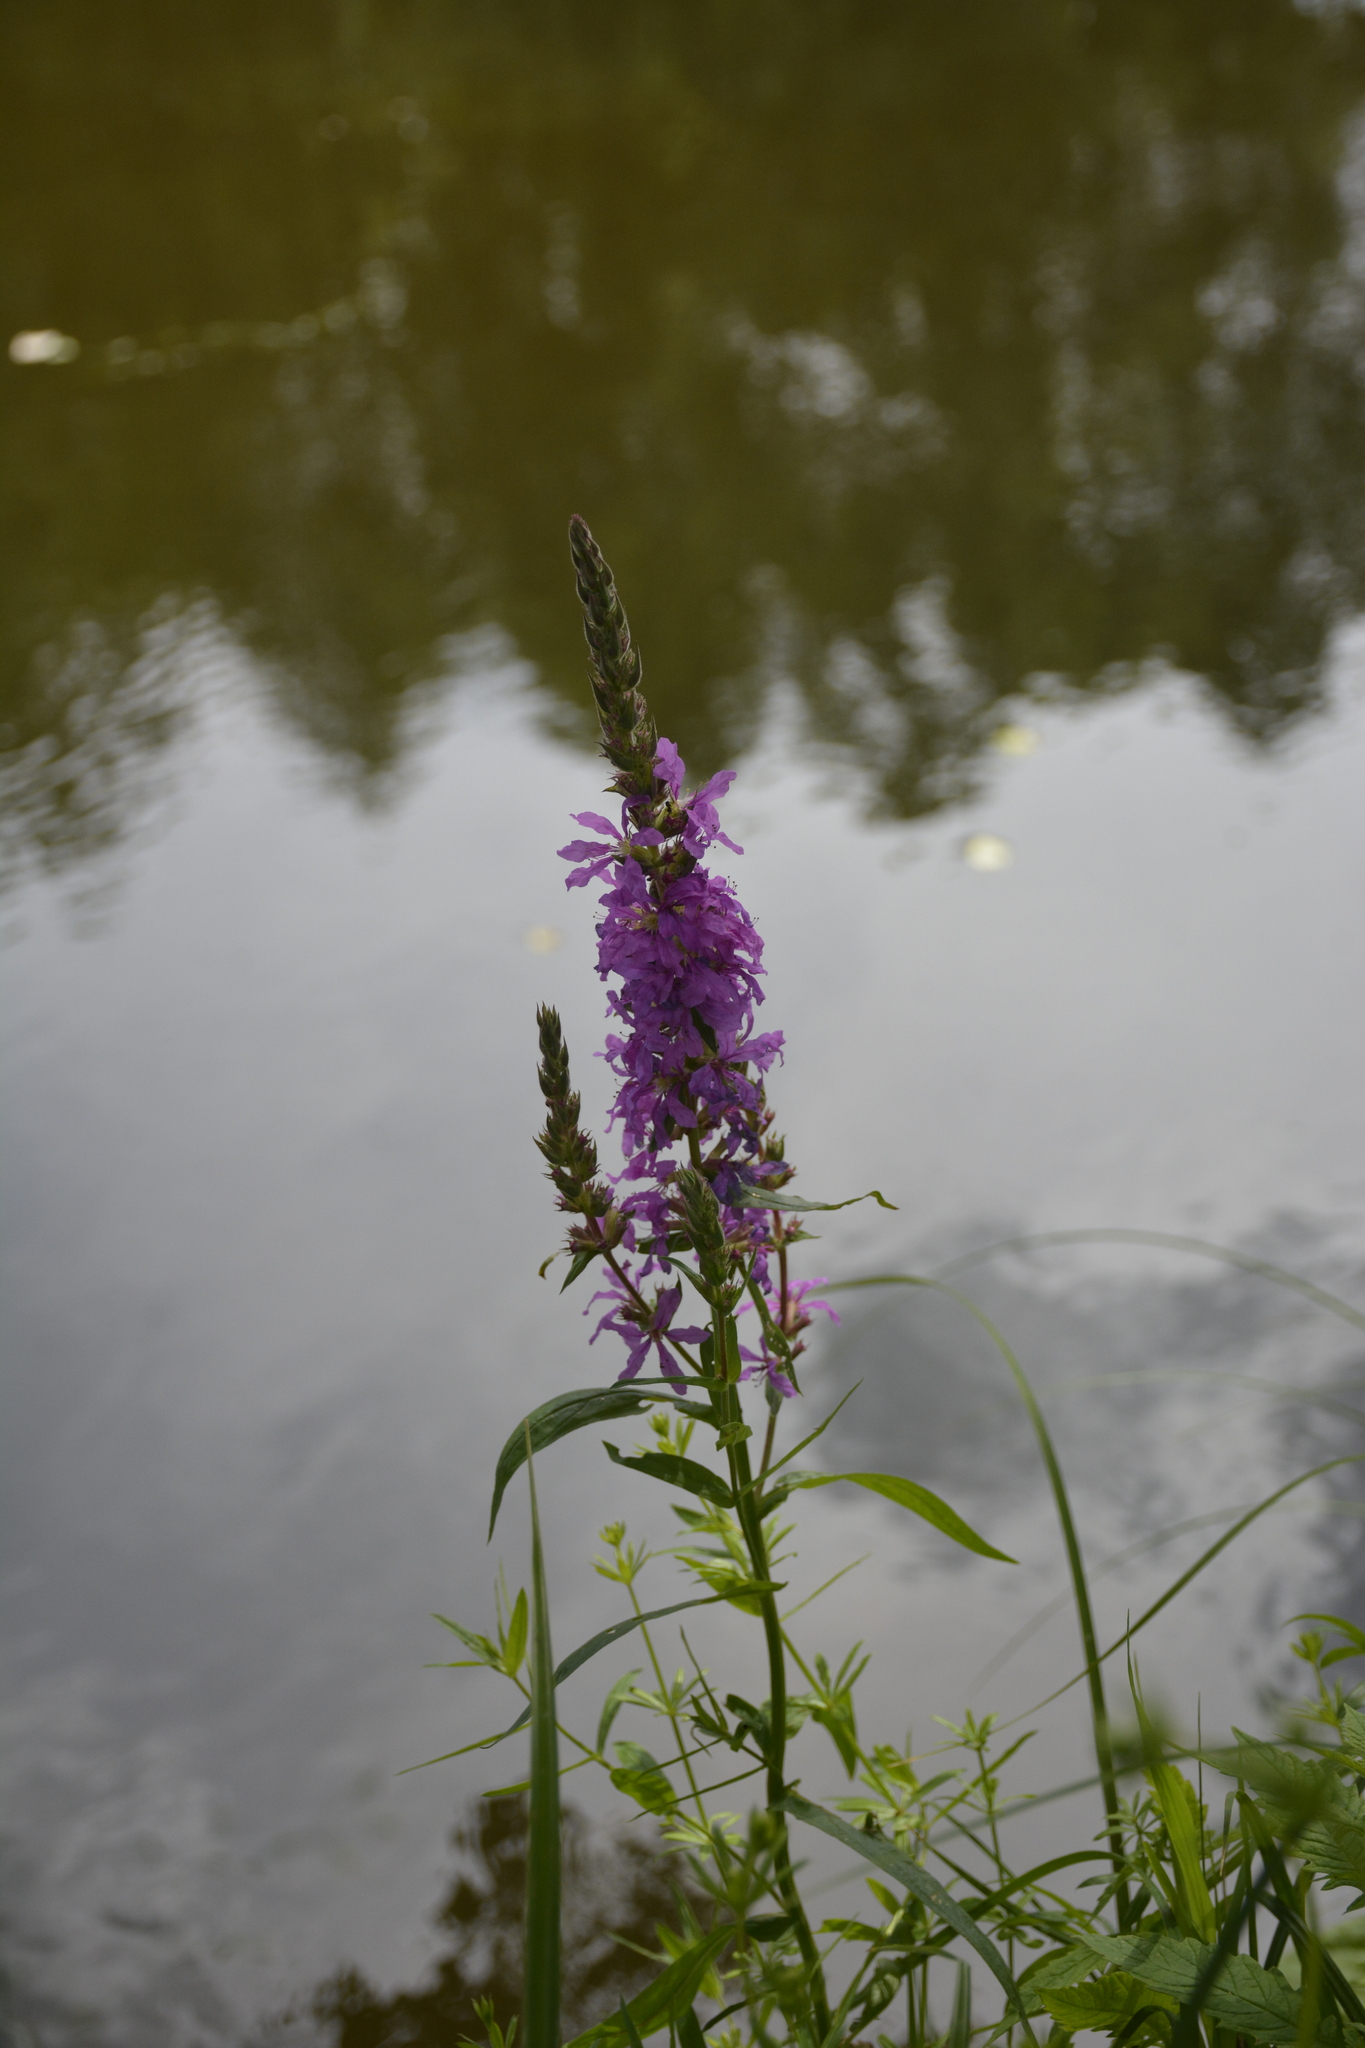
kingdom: Plantae
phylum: Tracheophyta
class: Magnoliopsida
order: Myrtales
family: Lythraceae
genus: Lythrum
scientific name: Lythrum salicaria
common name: Purple loosestrife
